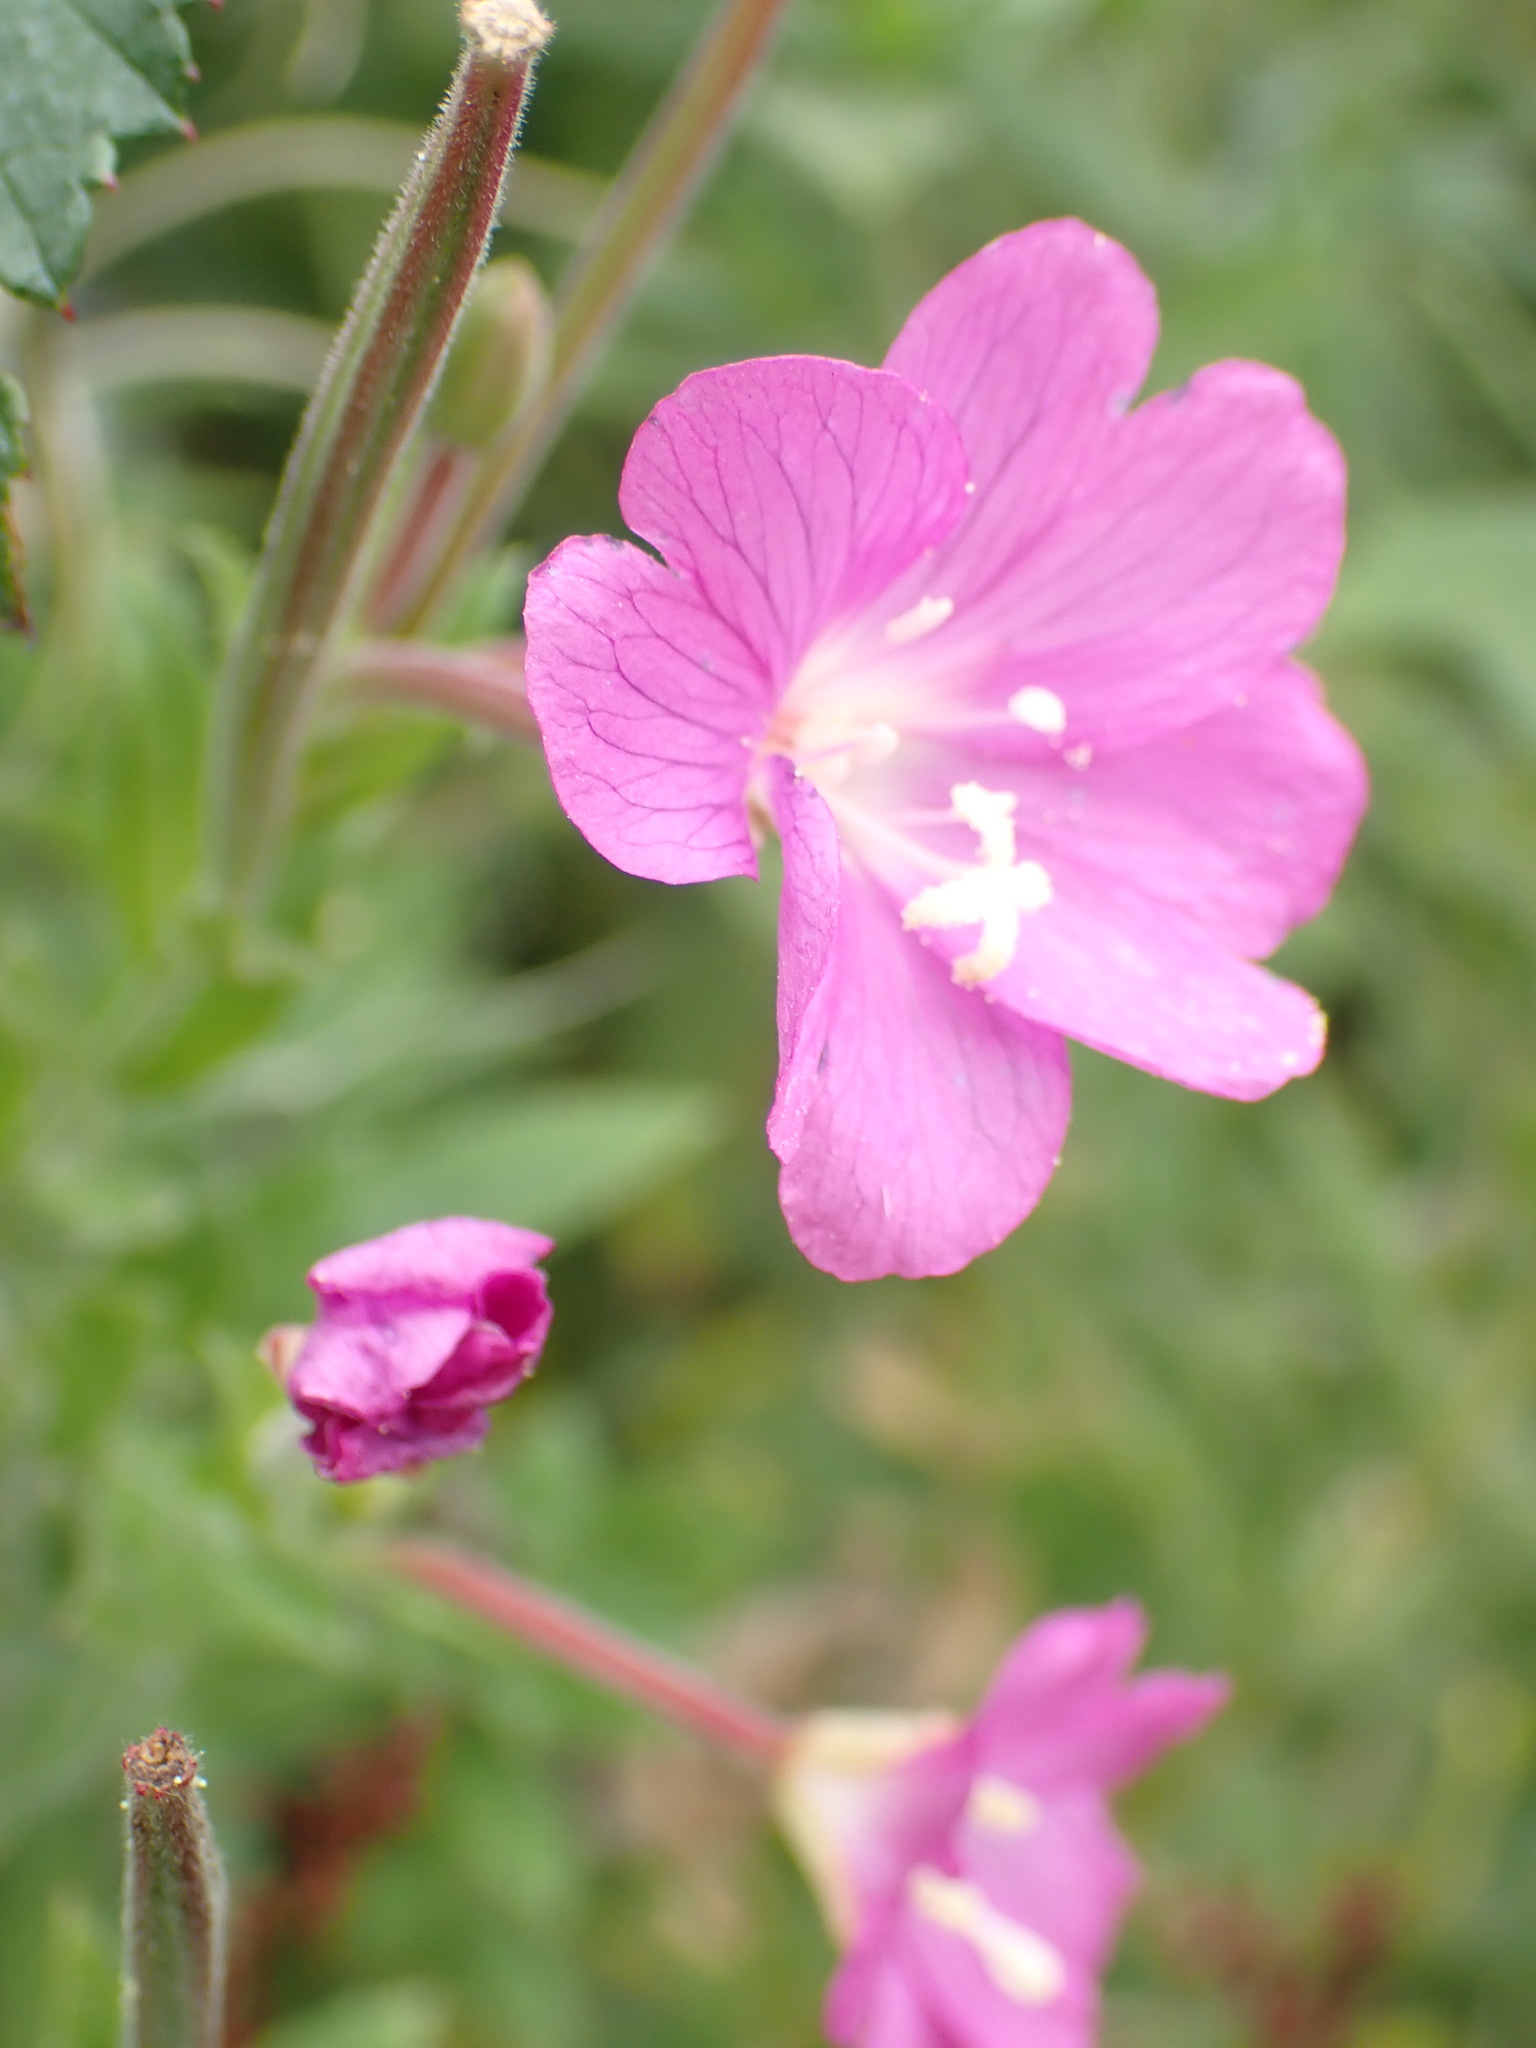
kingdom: Plantae
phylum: Tracheophyta
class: Magnoliopsida
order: Myrtales
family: Onagraceae
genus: Epilobium
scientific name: Epilobium hirsutum
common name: Great willowherb
